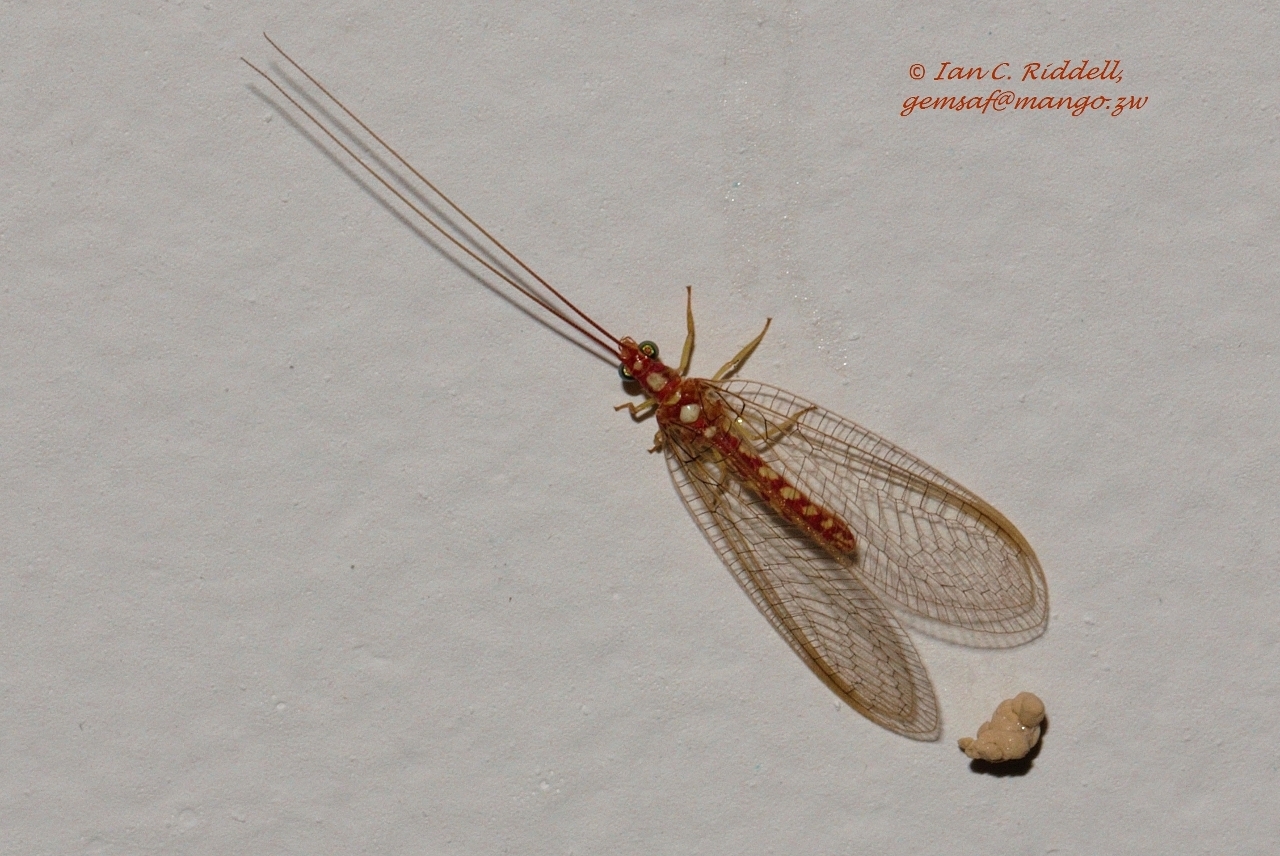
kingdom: Animalia
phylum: Arthropoda
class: Insecta
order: Neuroptera
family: Chrysopidae
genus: Dysochrysa
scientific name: Dysochrysa furcata
